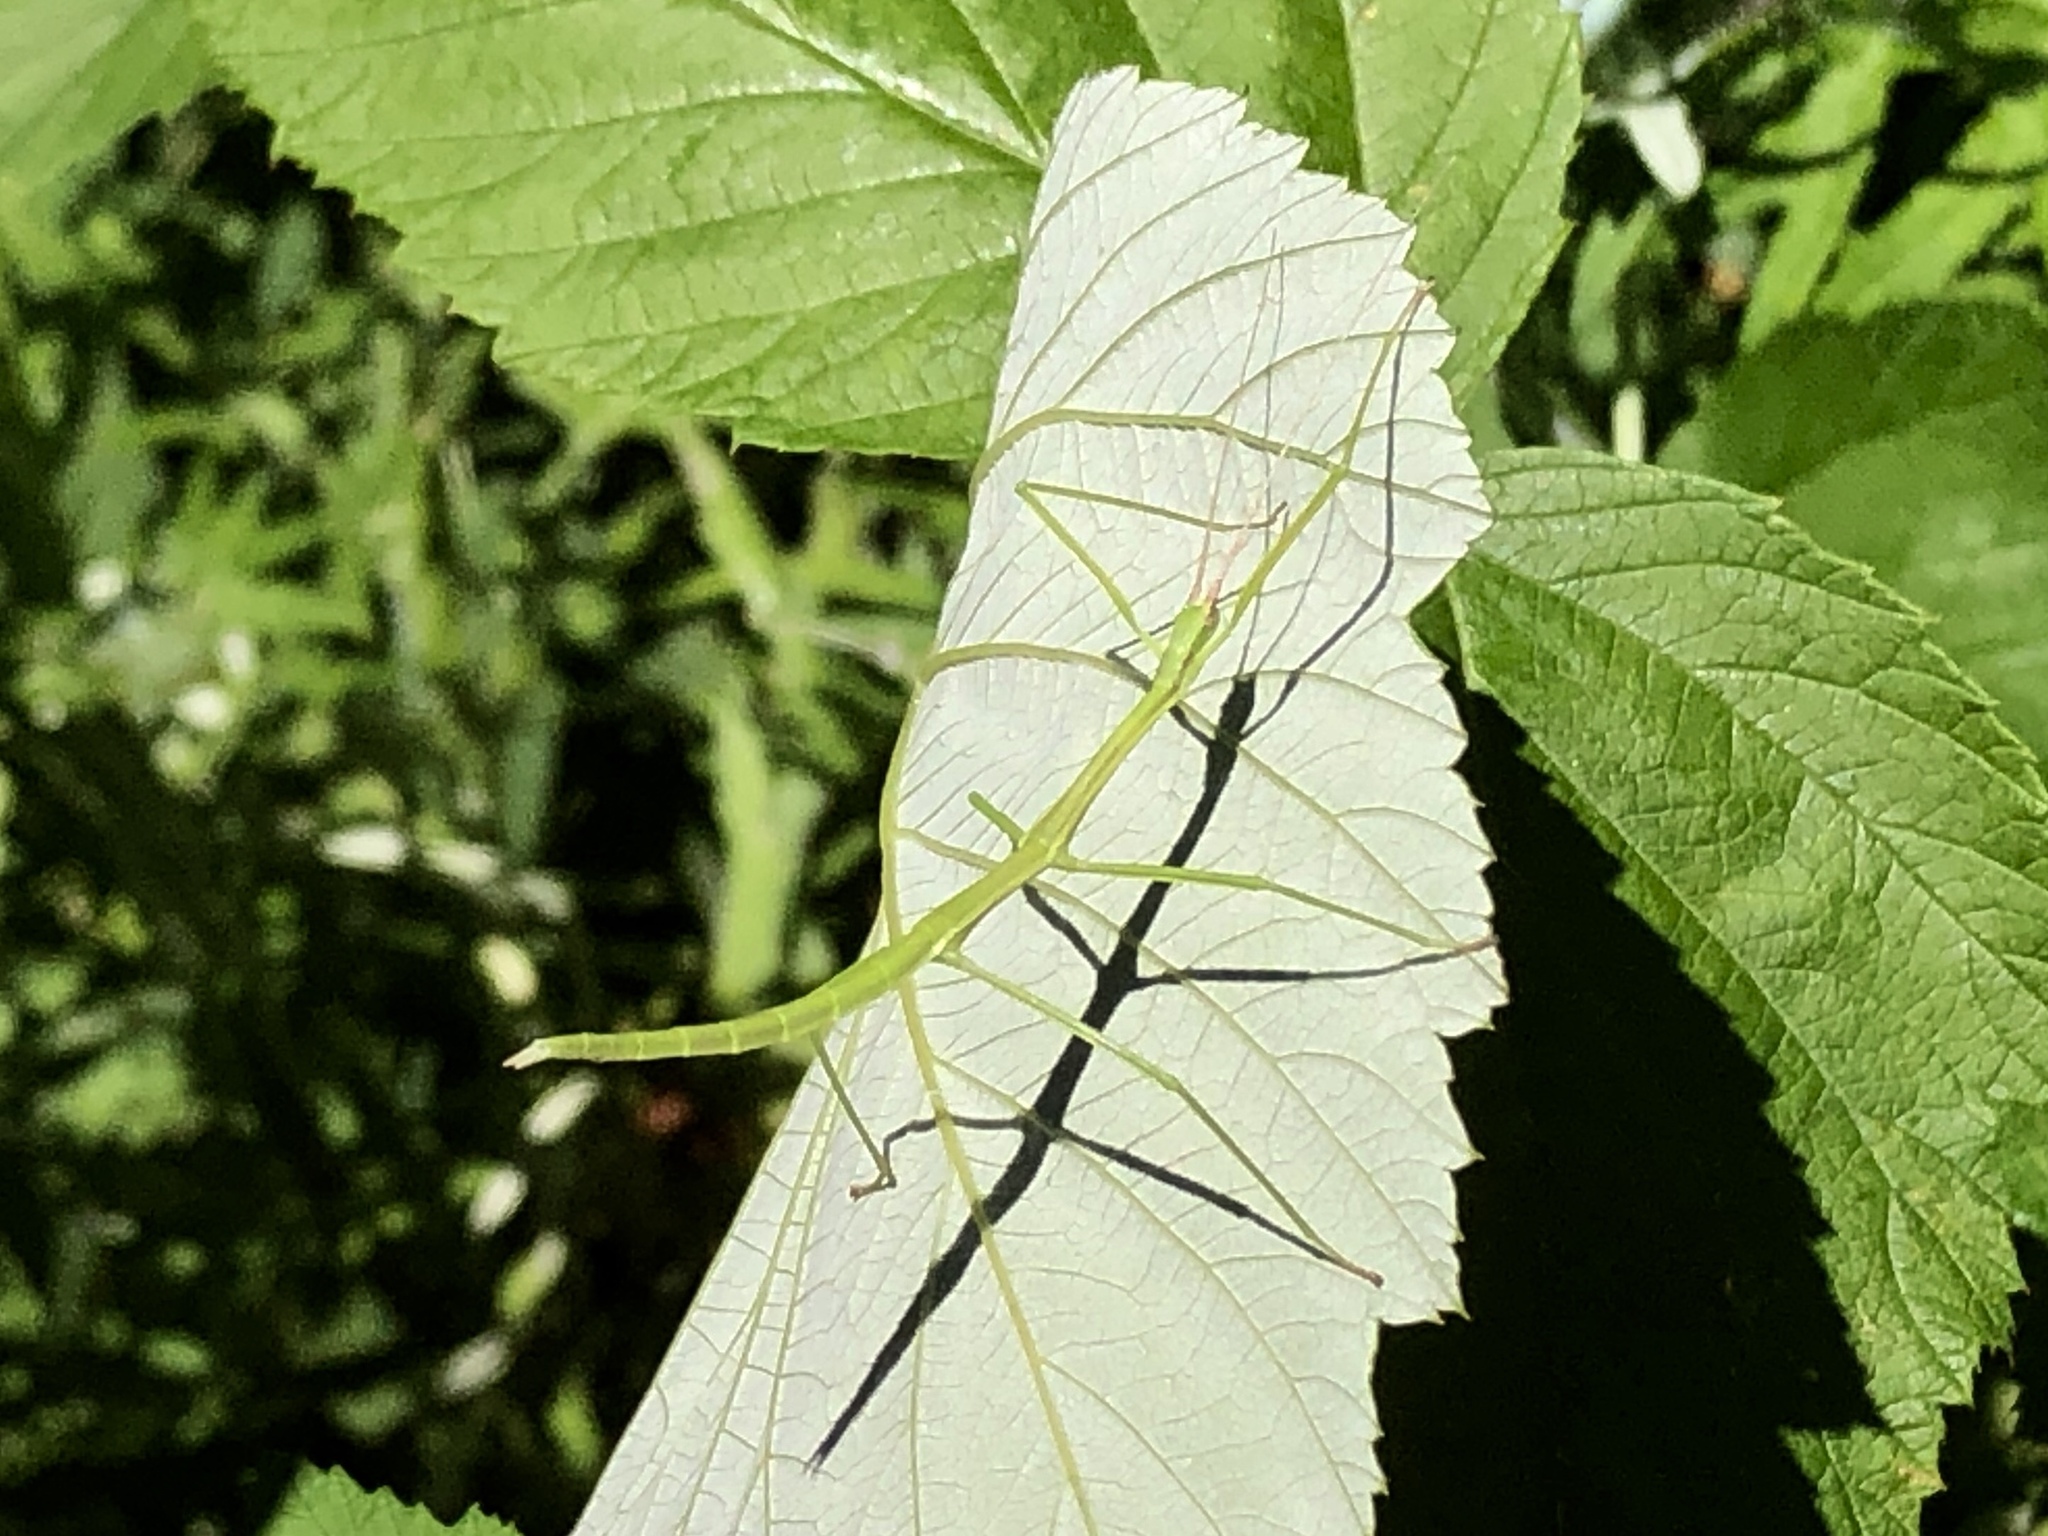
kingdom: Animalia
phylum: Arthropoda
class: Insecta
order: Phasmida
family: Diapheromeridae
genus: Manomera
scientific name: Manomera blatchleyi
